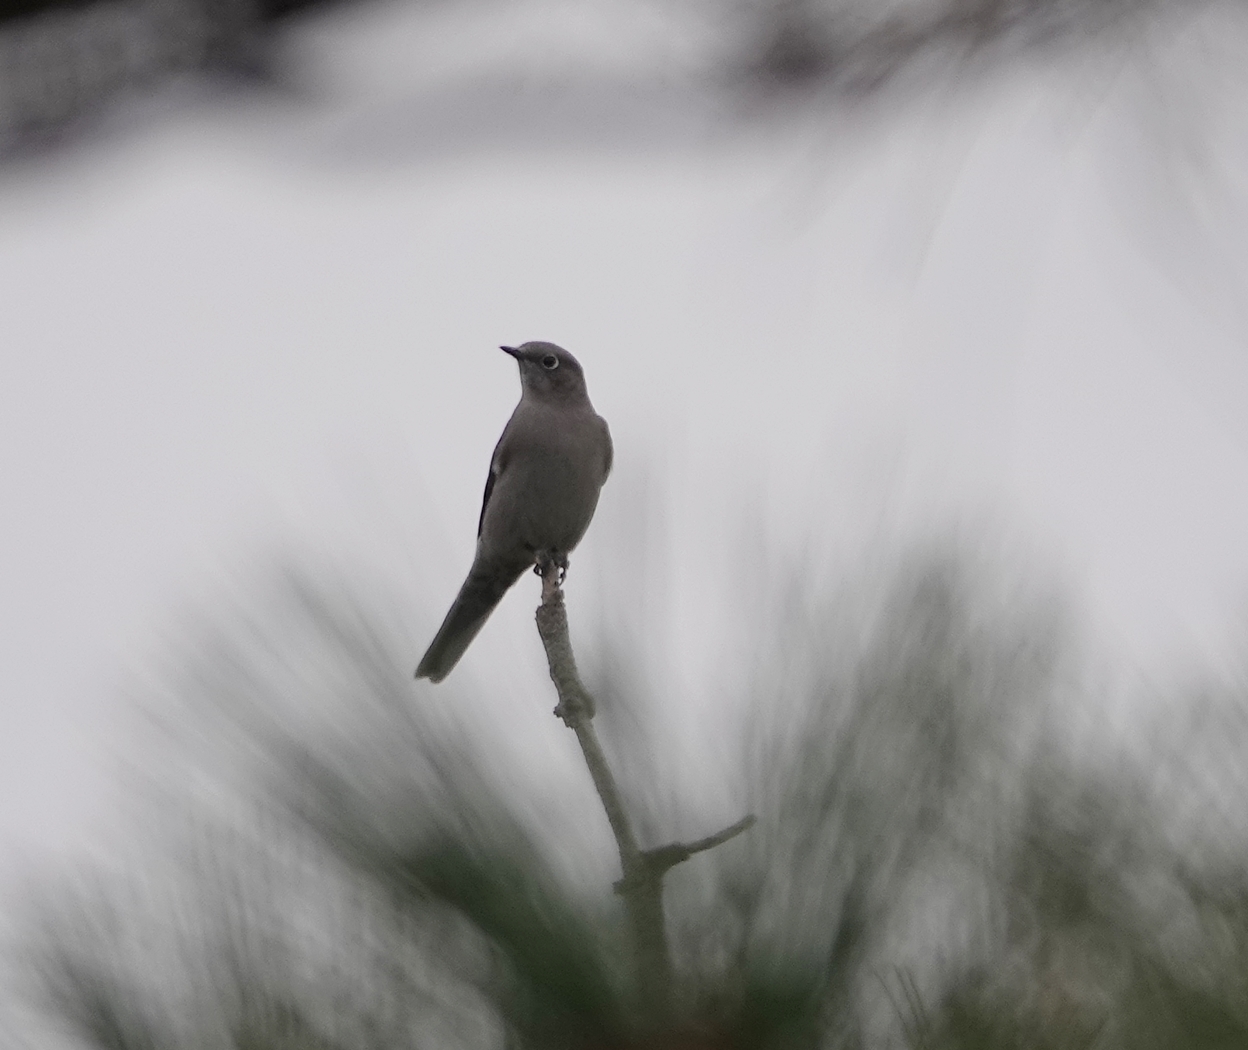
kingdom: Animalia
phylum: Chordata
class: Aves
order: Passeriformes
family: Turdidae
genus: Myadestes
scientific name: Myadestes townsendi
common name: Townsend's solitaire
